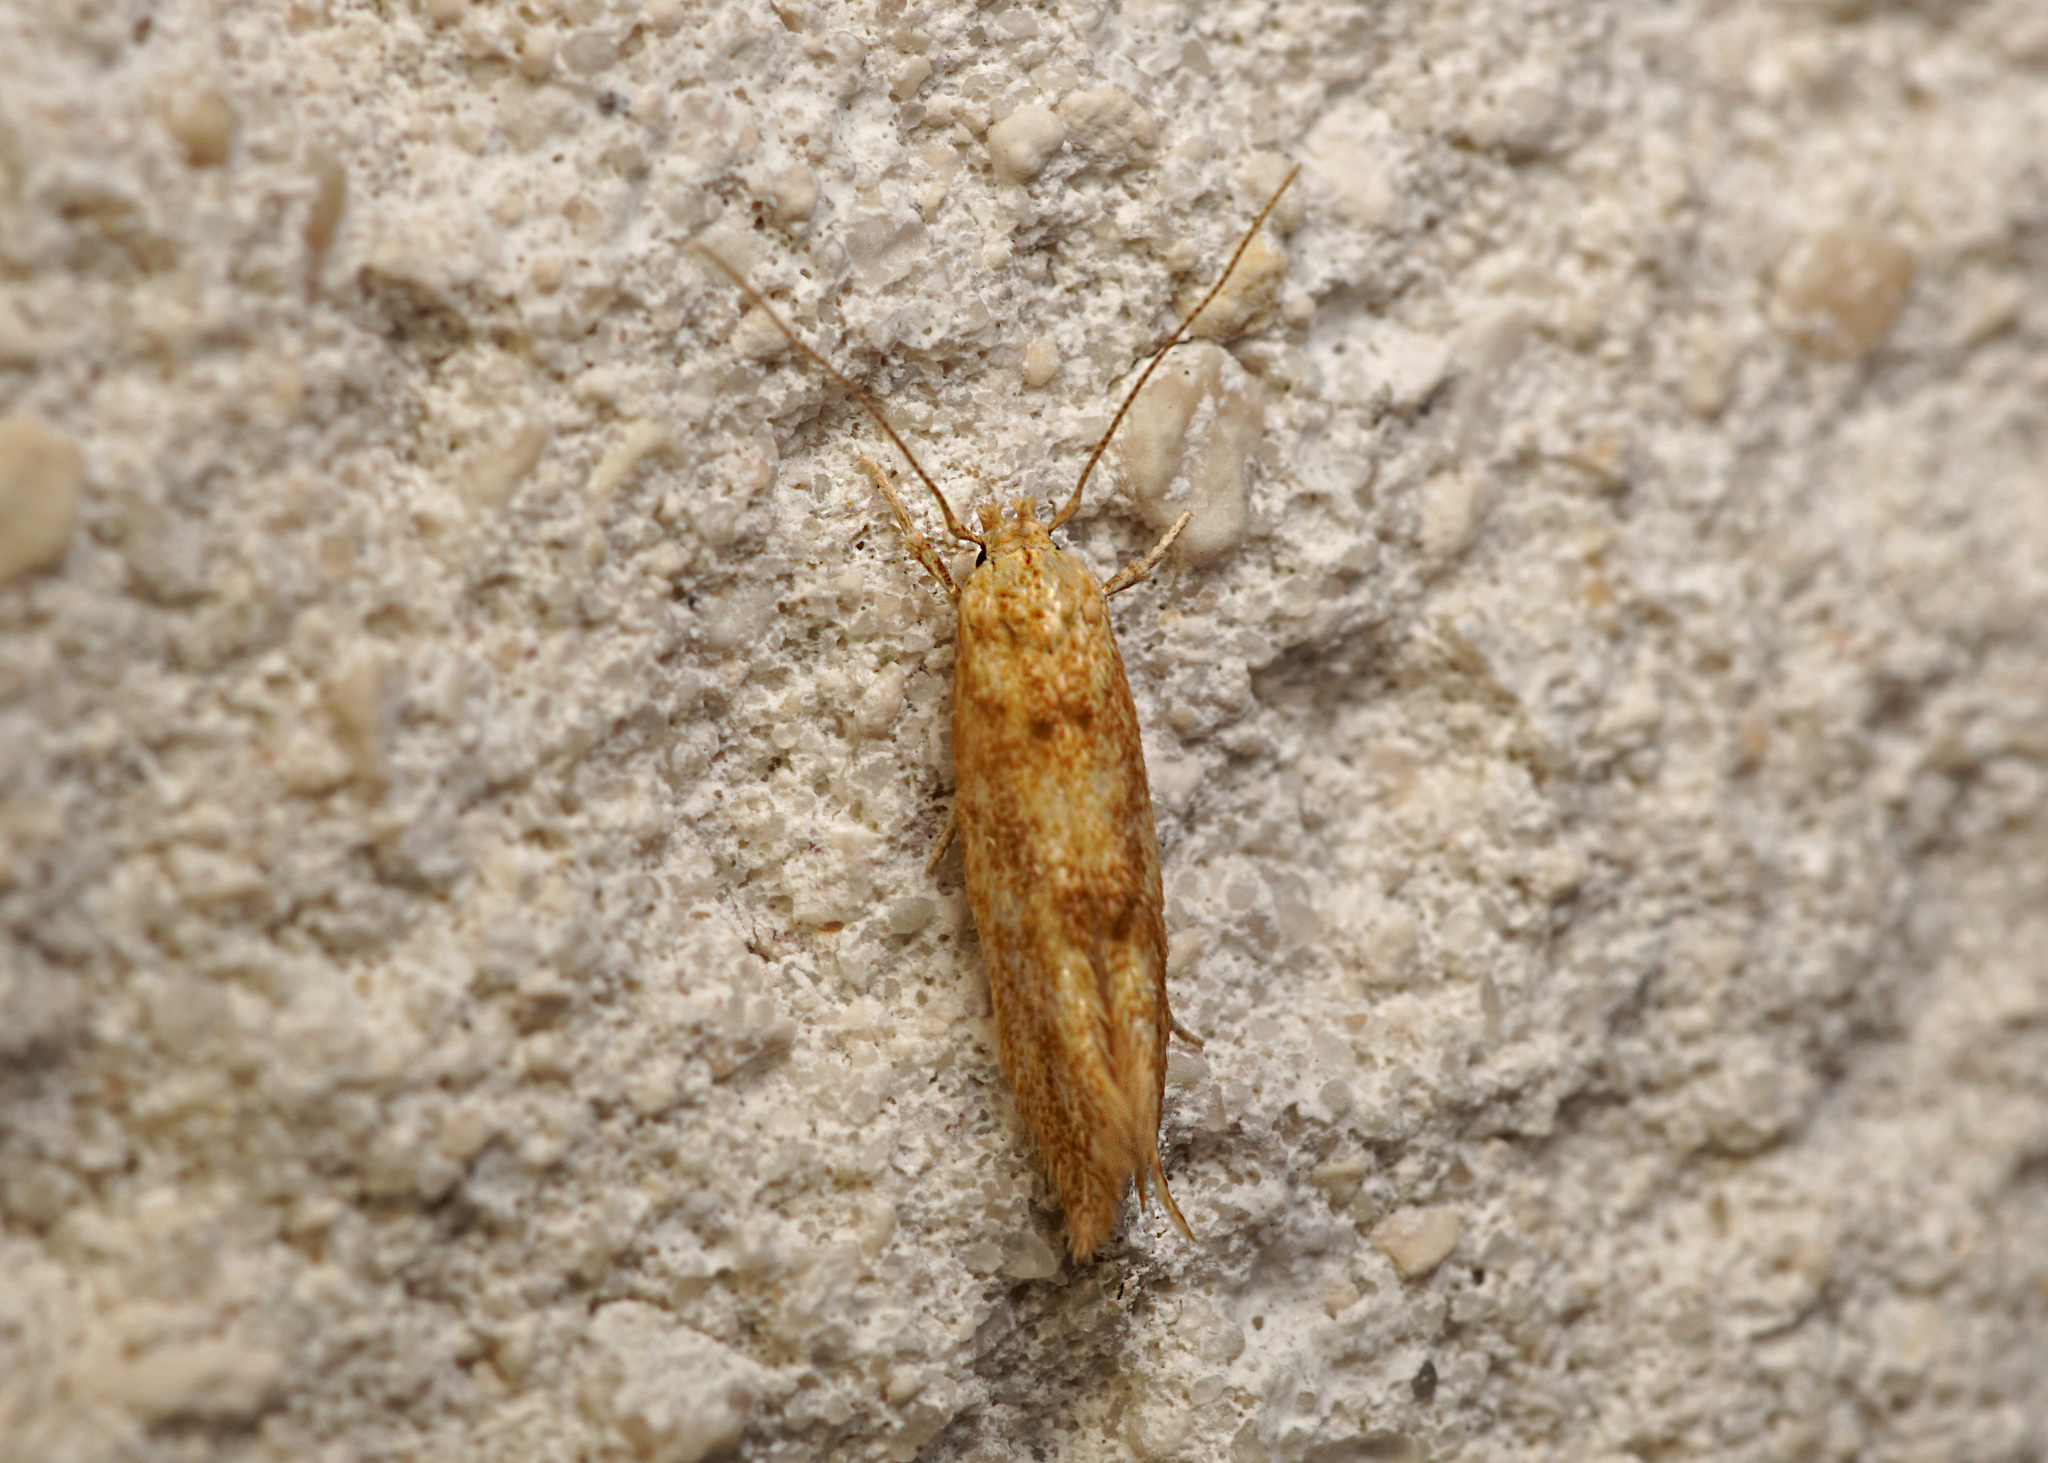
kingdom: Animalia
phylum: Arthropoda
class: Insecta
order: Lepidoptera
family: Momphidae
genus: Mompha
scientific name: Mompha epilobiella
